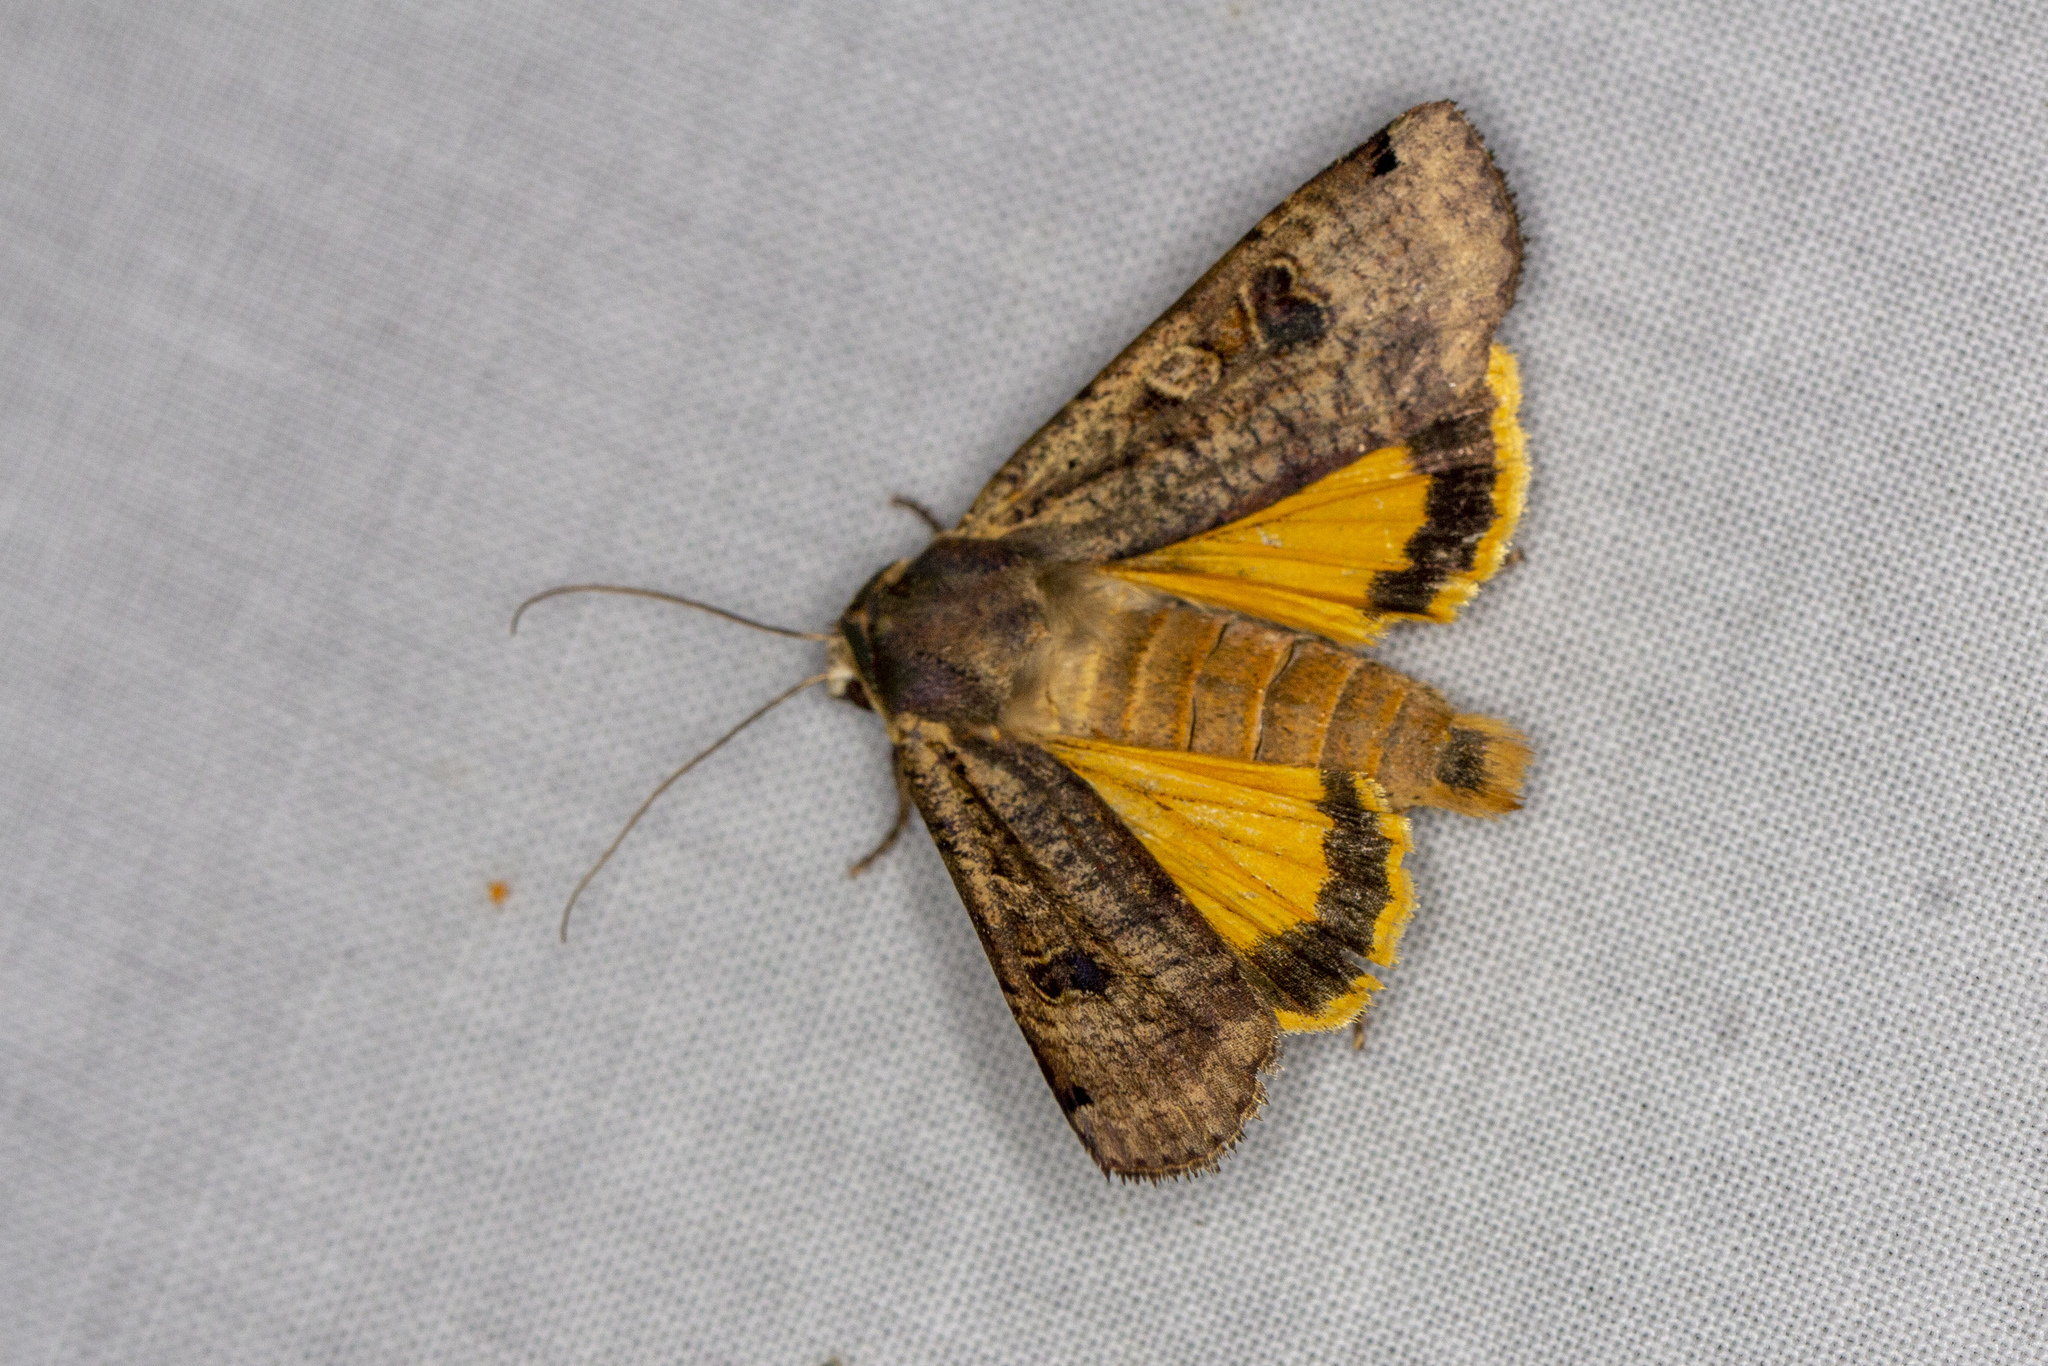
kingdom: Animalia
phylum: Arthropoda
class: Insecta
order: Lepidoptera
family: Noctuidae
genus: Noctua
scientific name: Noctua pronuba
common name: Large yellow underwing
